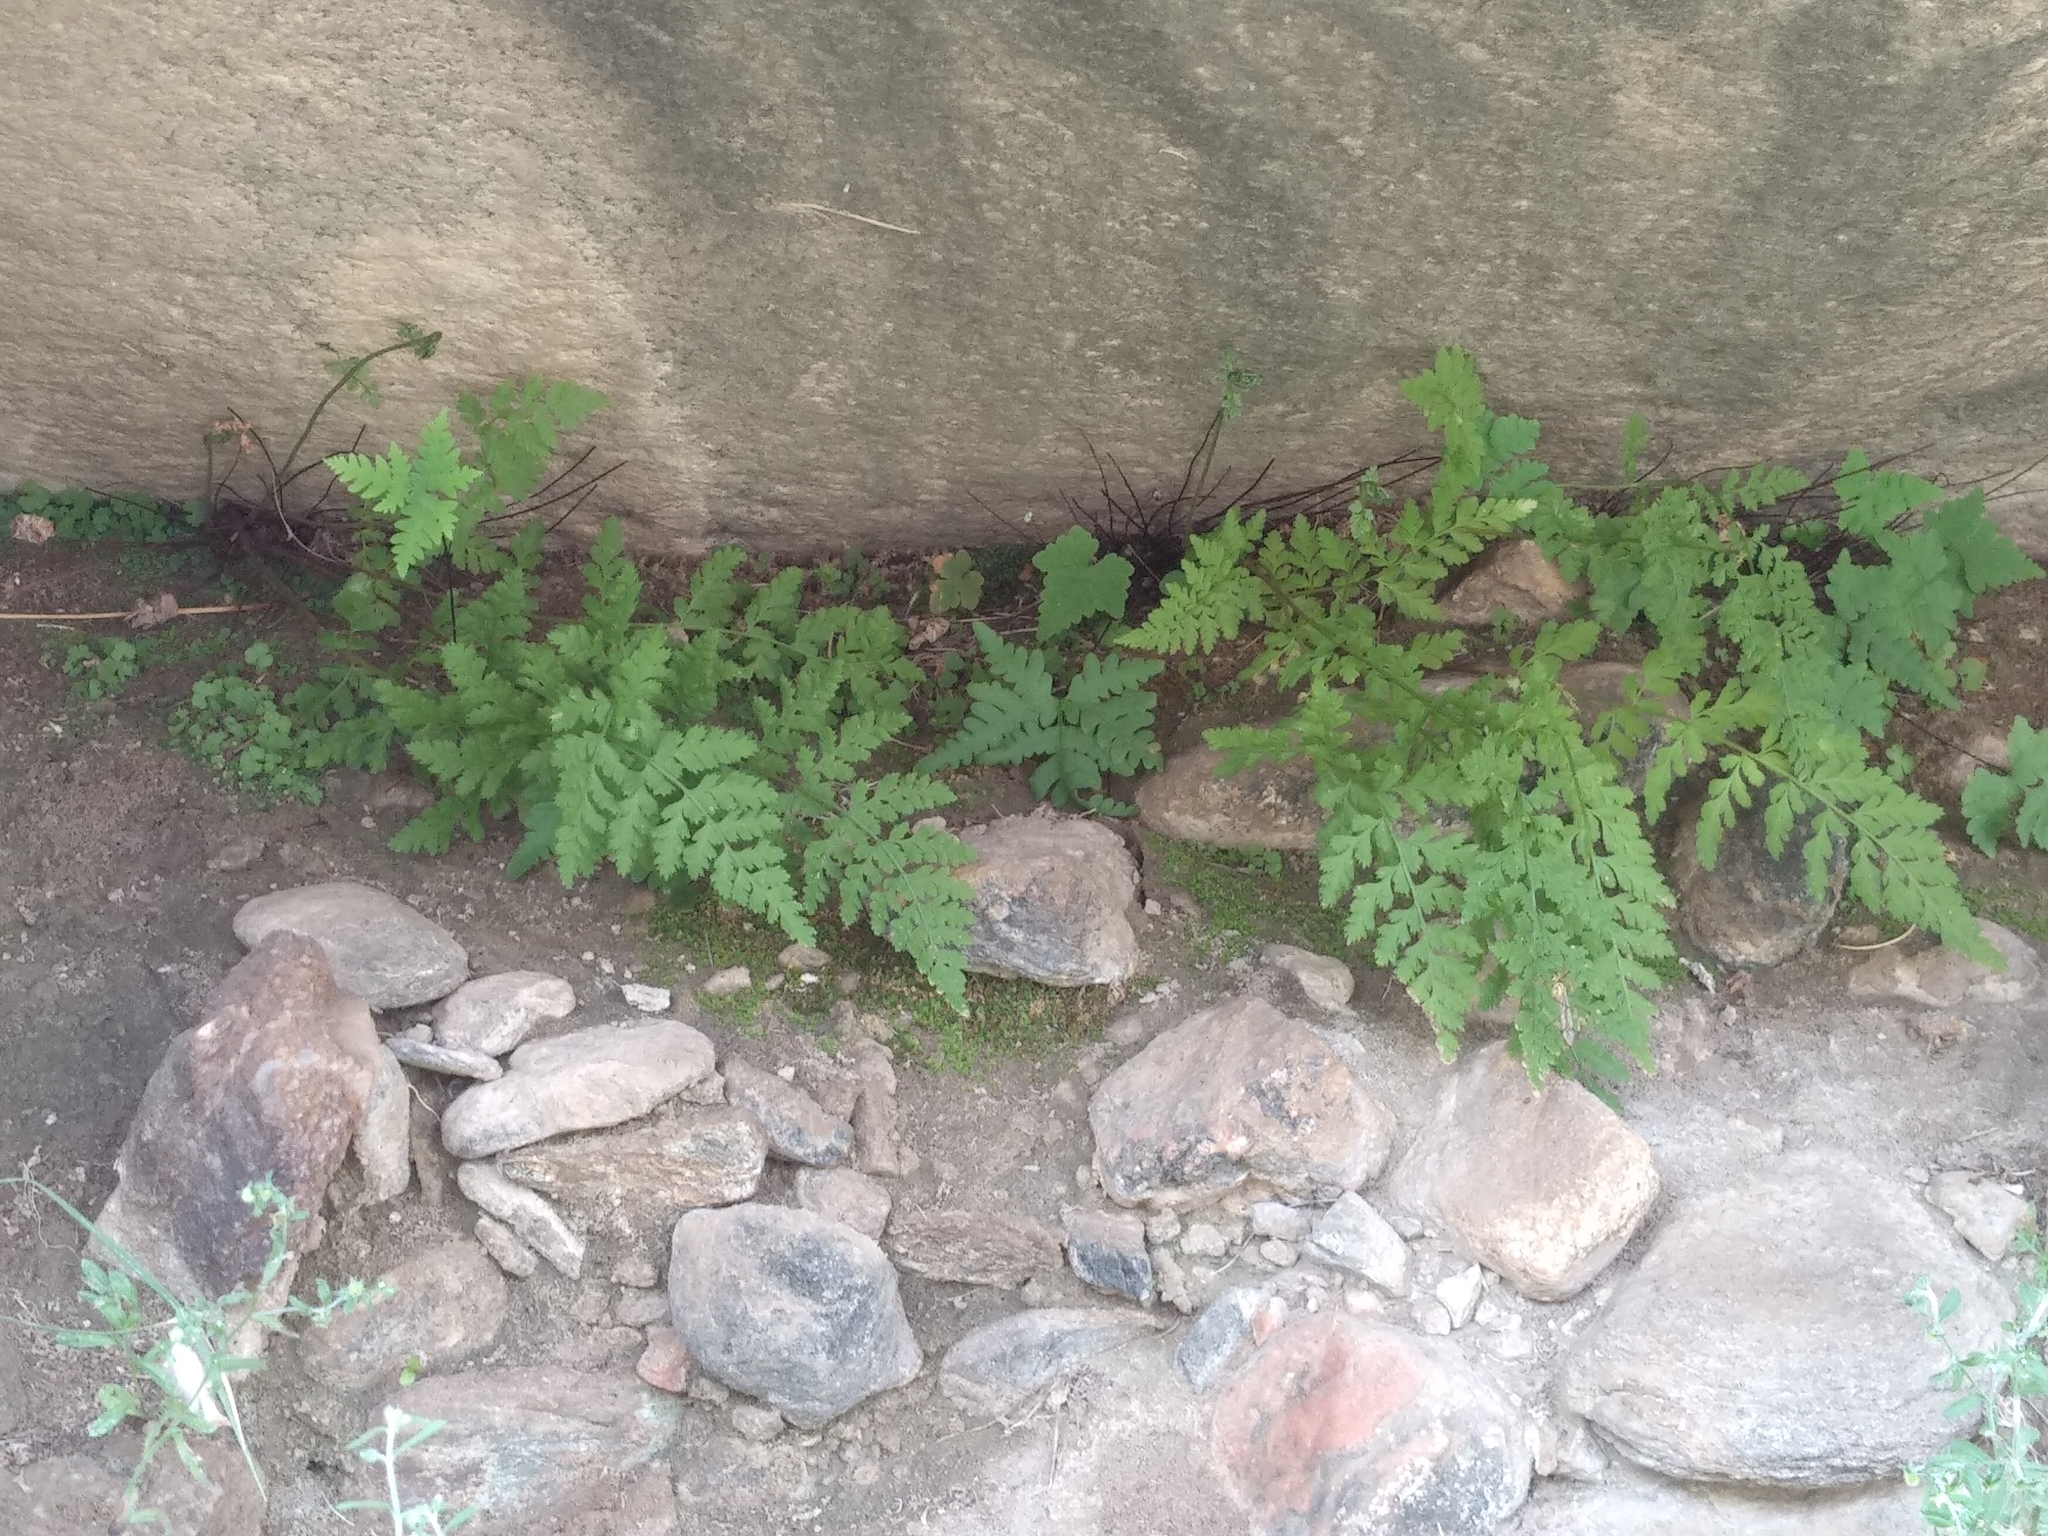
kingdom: Plantae
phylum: Tracheophyta
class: Polypodiopsida
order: Polypodiales
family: Cystopteridaceae
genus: Cystopteris
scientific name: Cystopteris fragilis
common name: Brittle bladder fern
